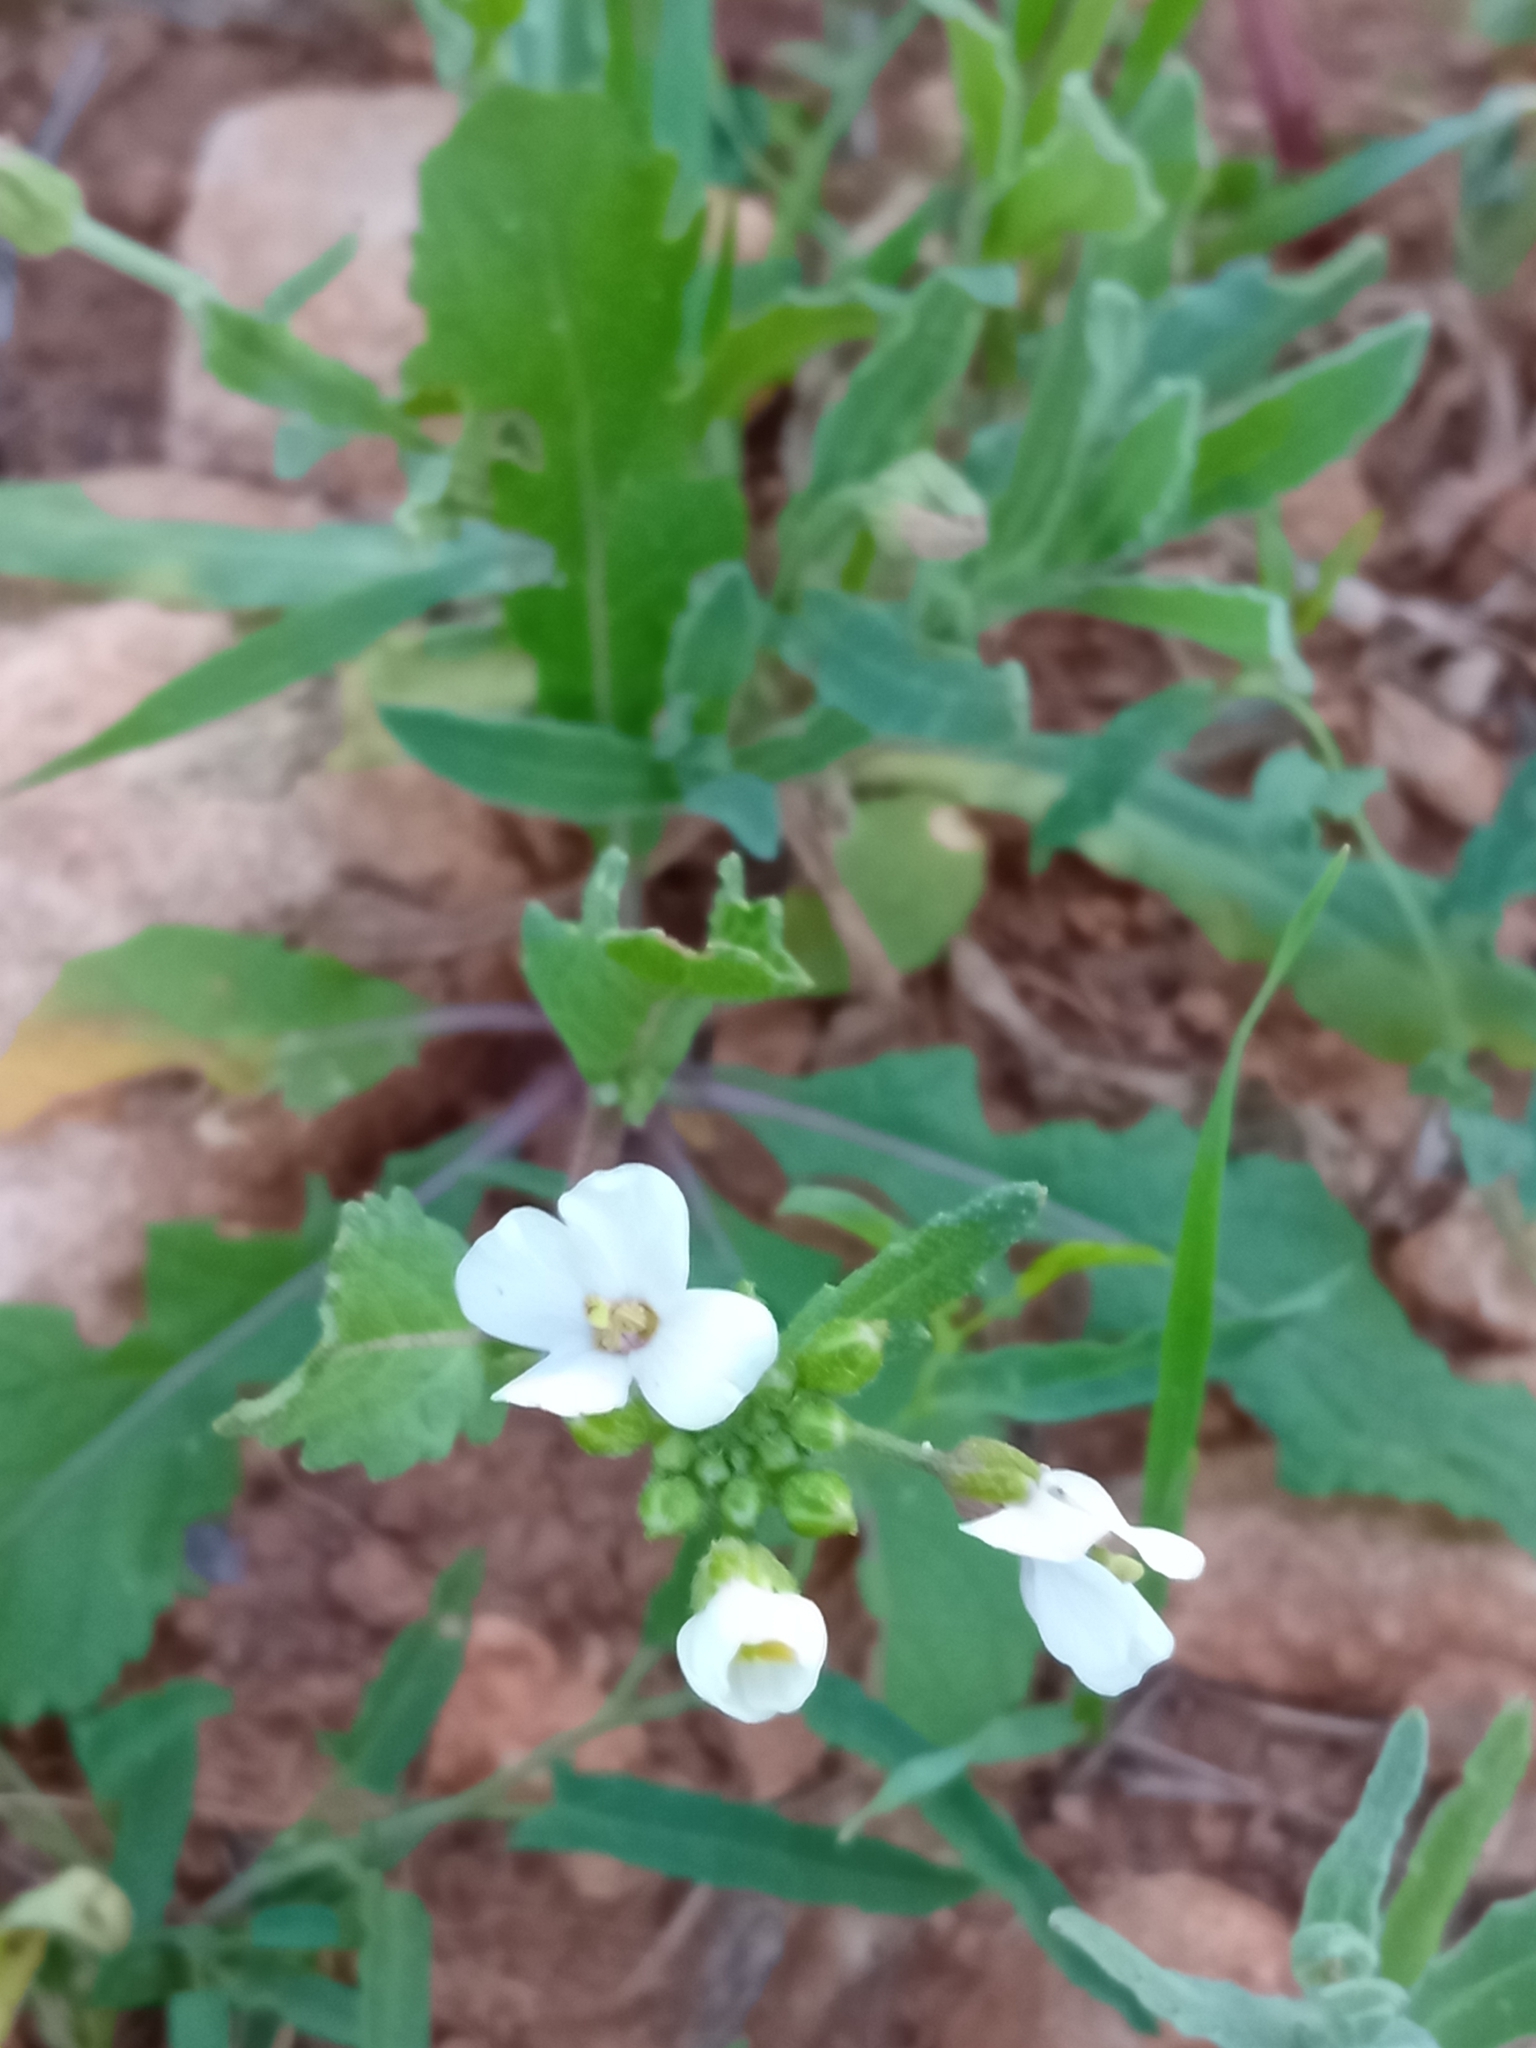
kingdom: Plantae
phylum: Tracheophyta
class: Magnoliopsida
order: Brassicales
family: Brassicaceae
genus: Diplotaxis
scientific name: Diplotaxis erucoides
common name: White rocket
